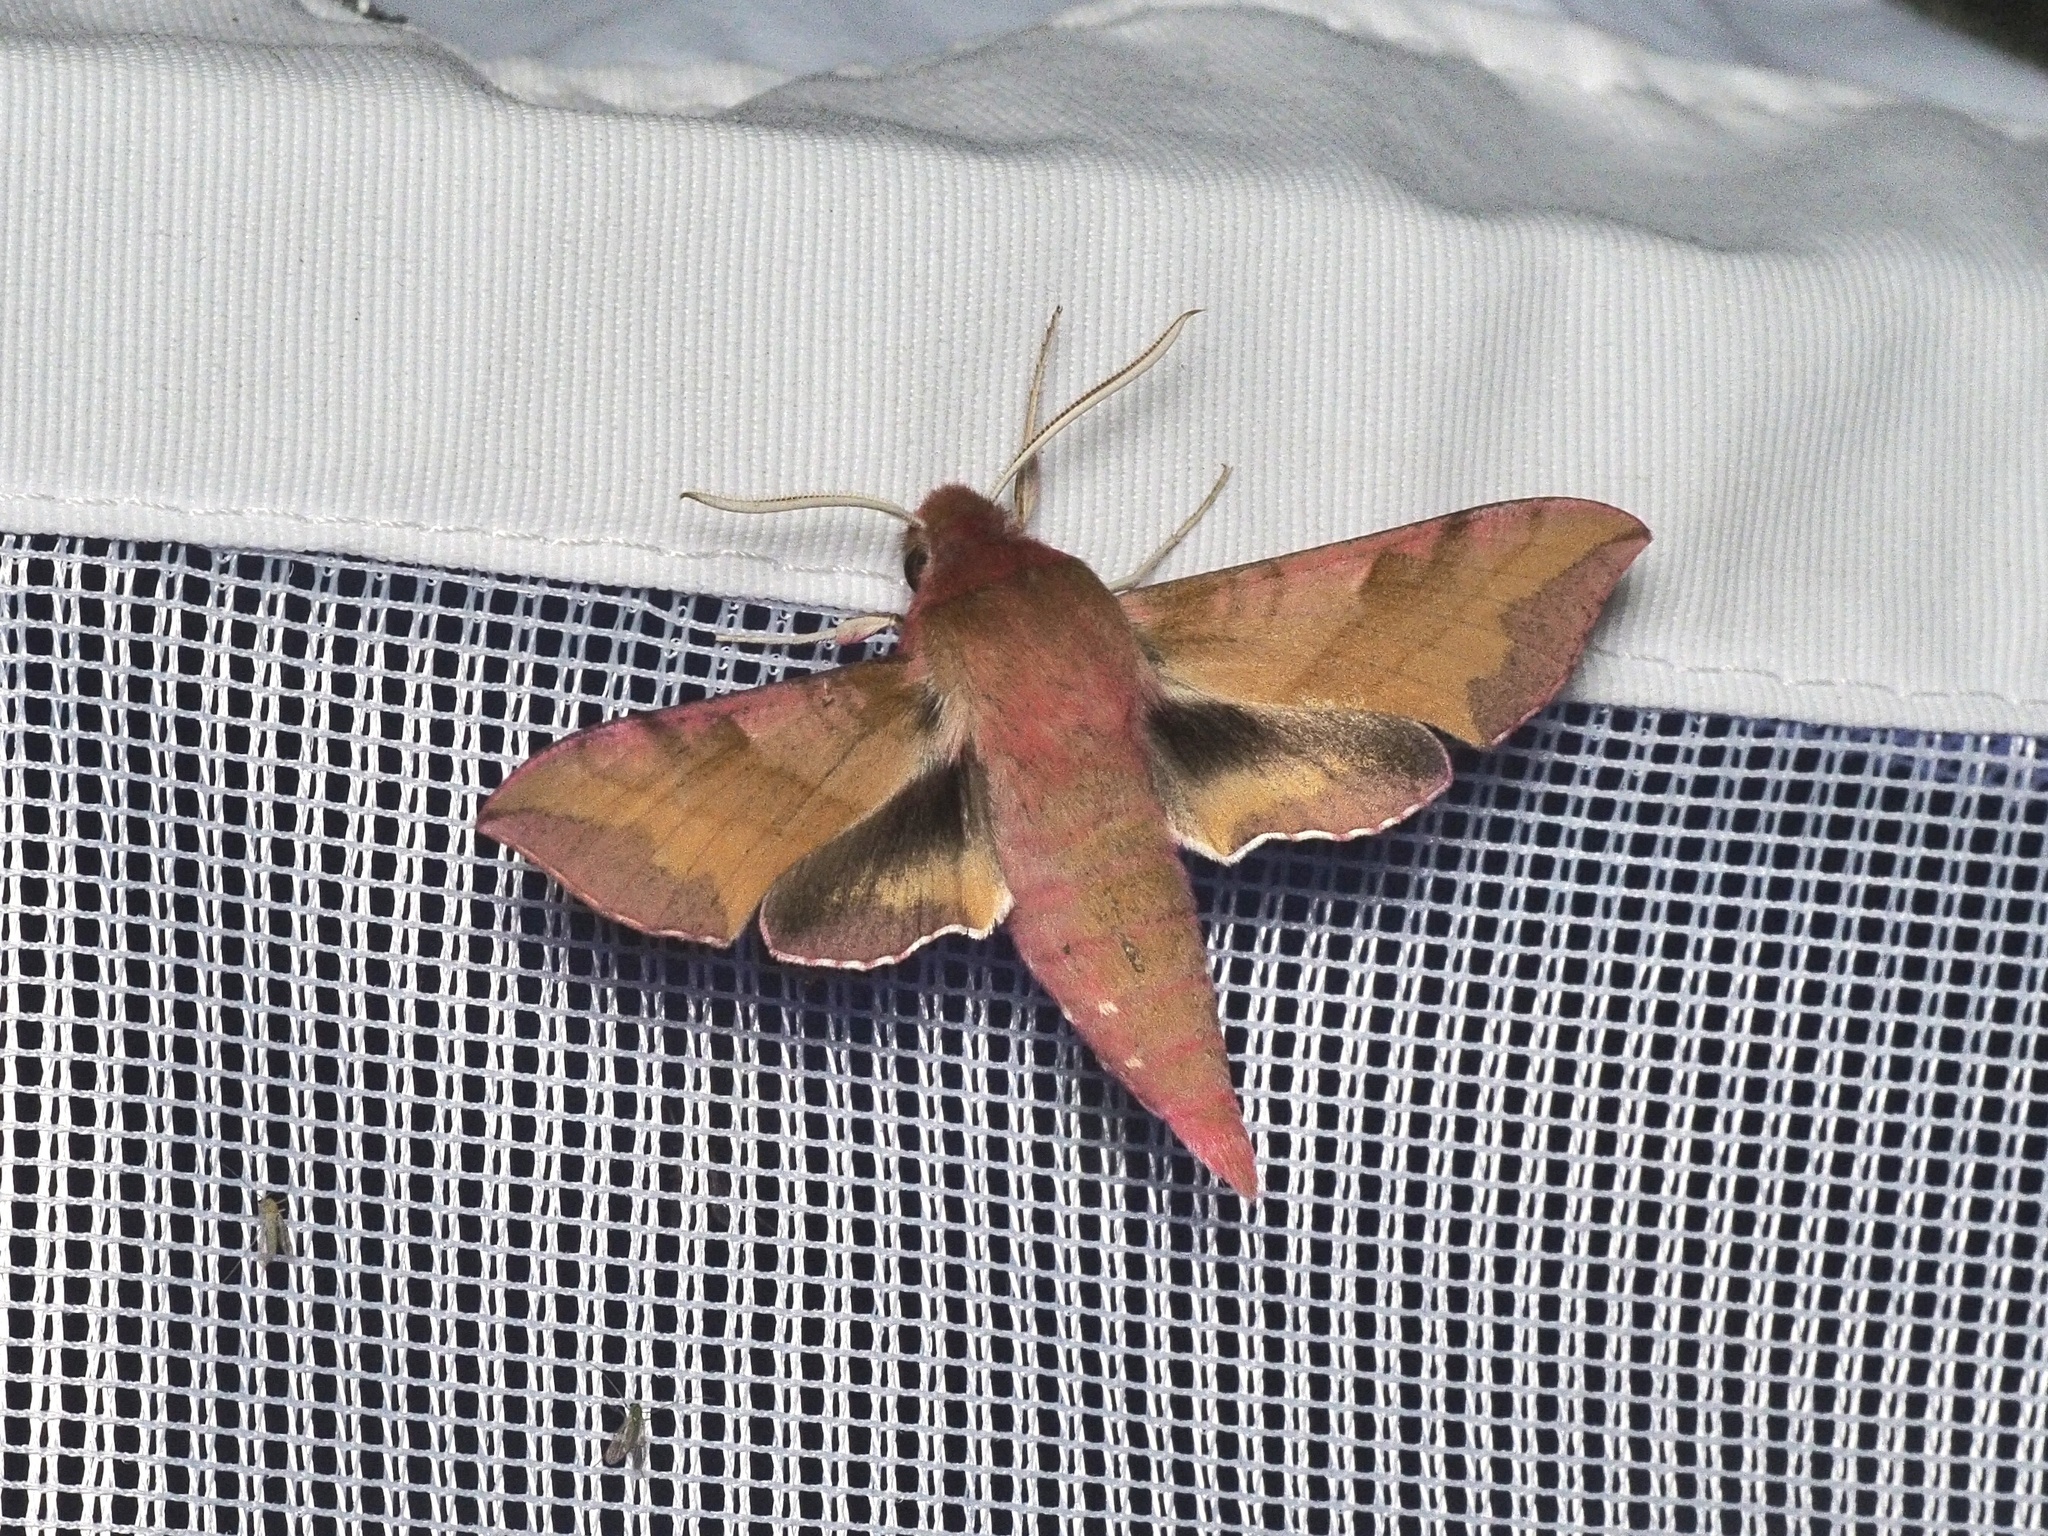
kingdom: Animalia
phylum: Arthropoda
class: Insecta
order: Lepidoptera
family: Sphingidae
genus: Deilephila
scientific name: Deilephila porcellus
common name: Small elephant hawk-moth
